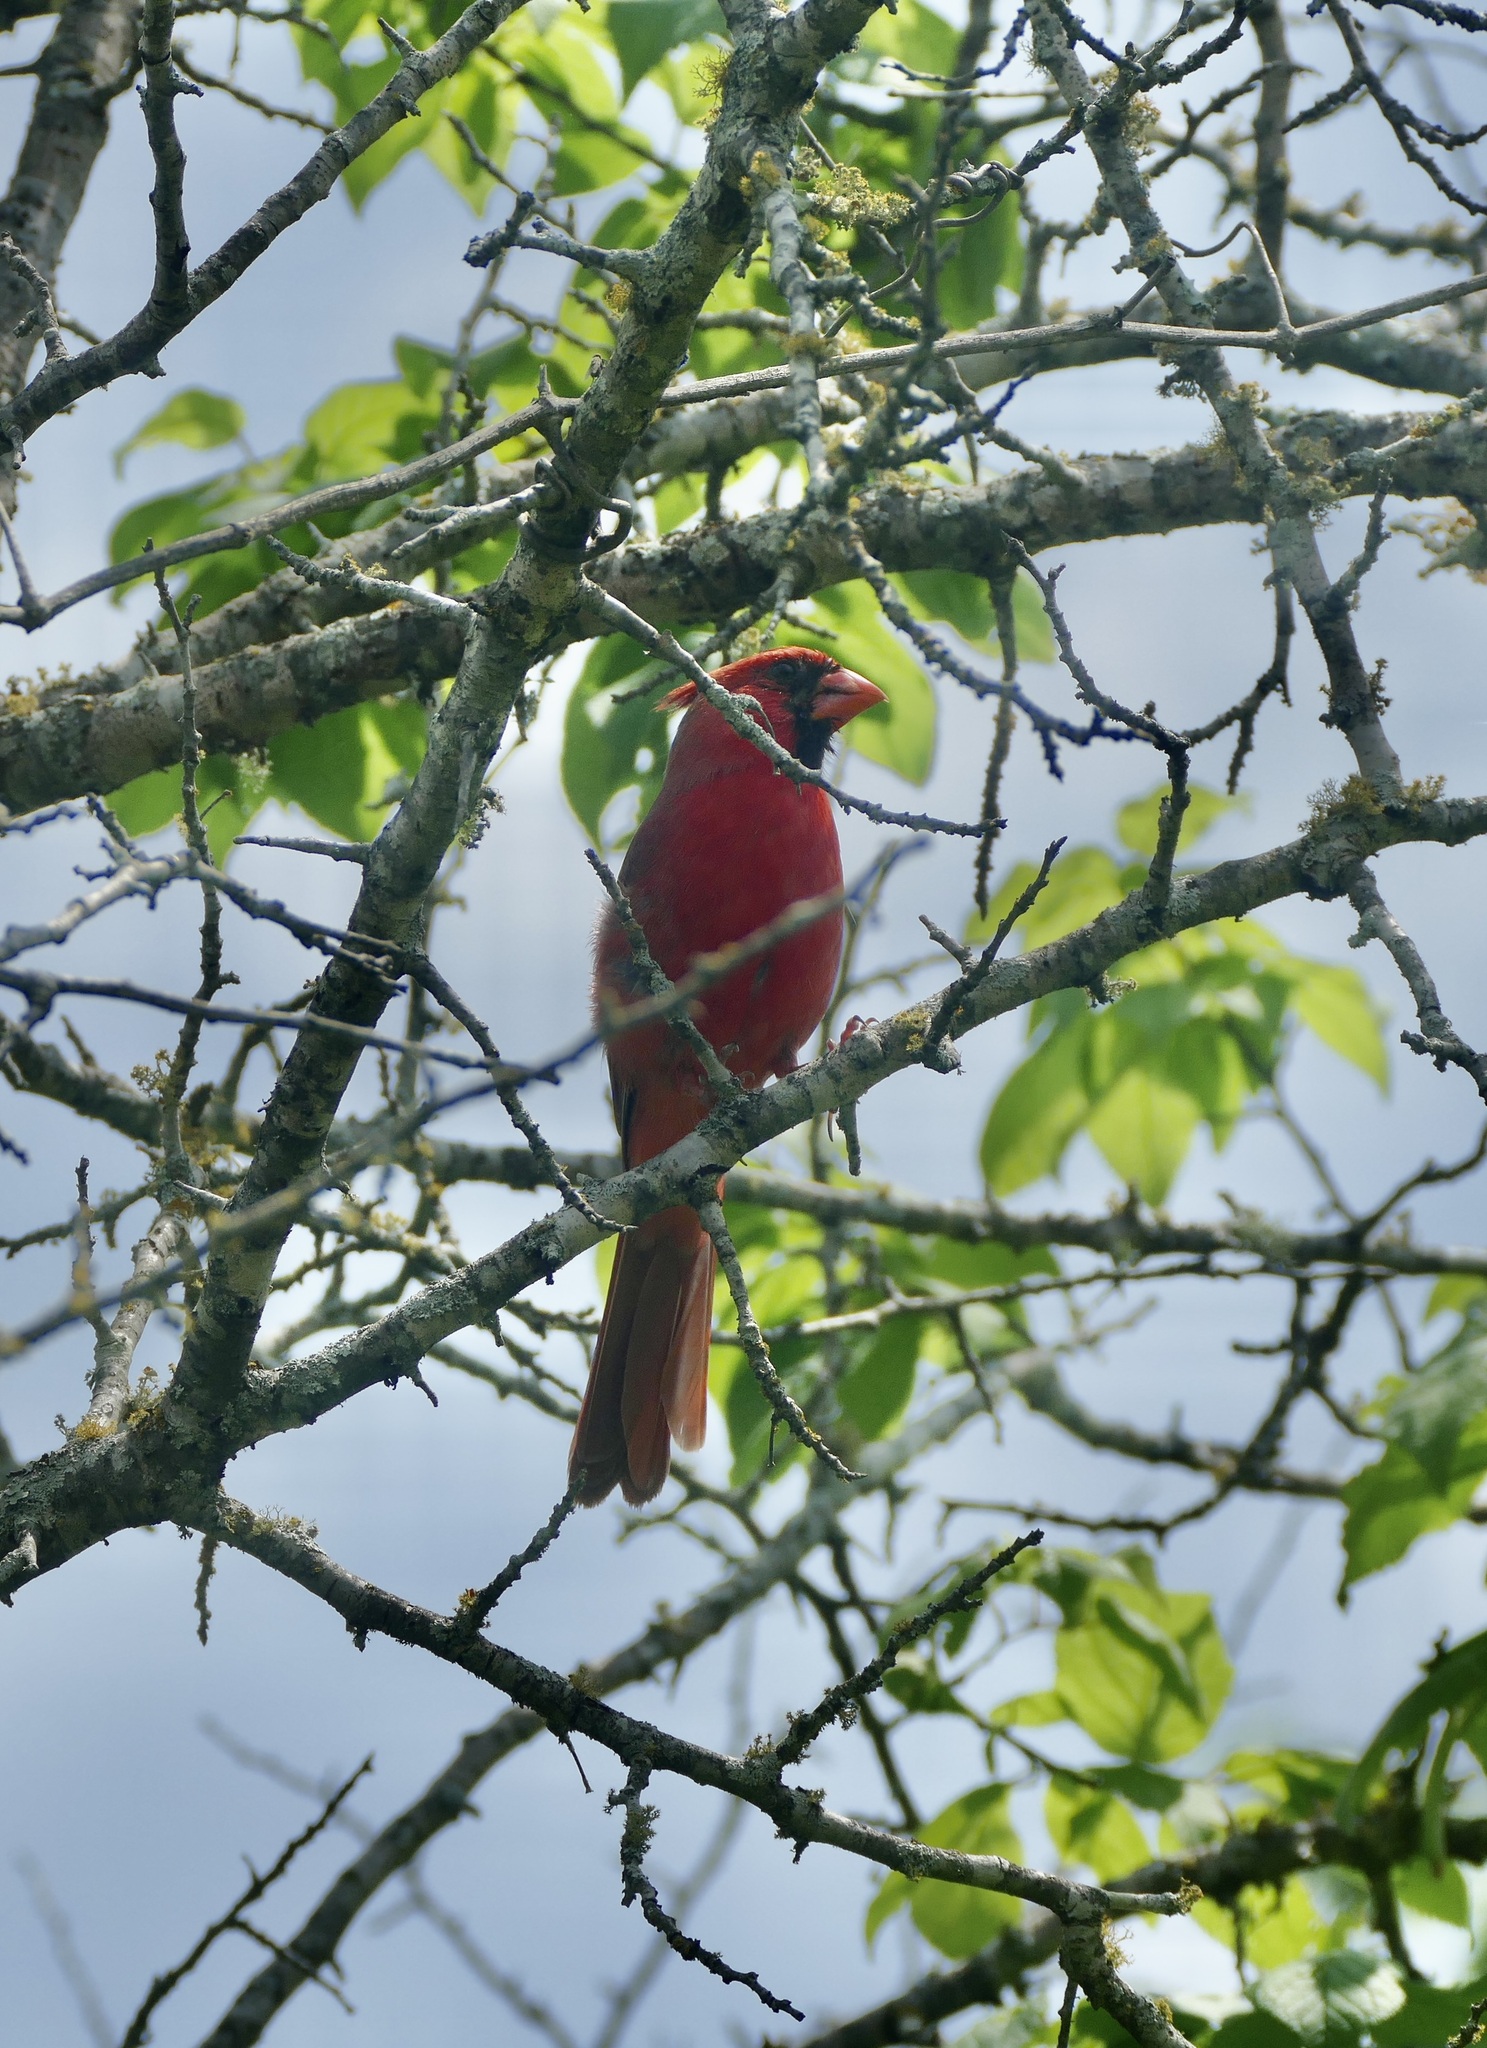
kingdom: Animalia
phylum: Chordata
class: Aves
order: Passeriformes
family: Cardinalidae
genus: Cardinalis
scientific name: Cardinalis cardinalis
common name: Northern cardinal
